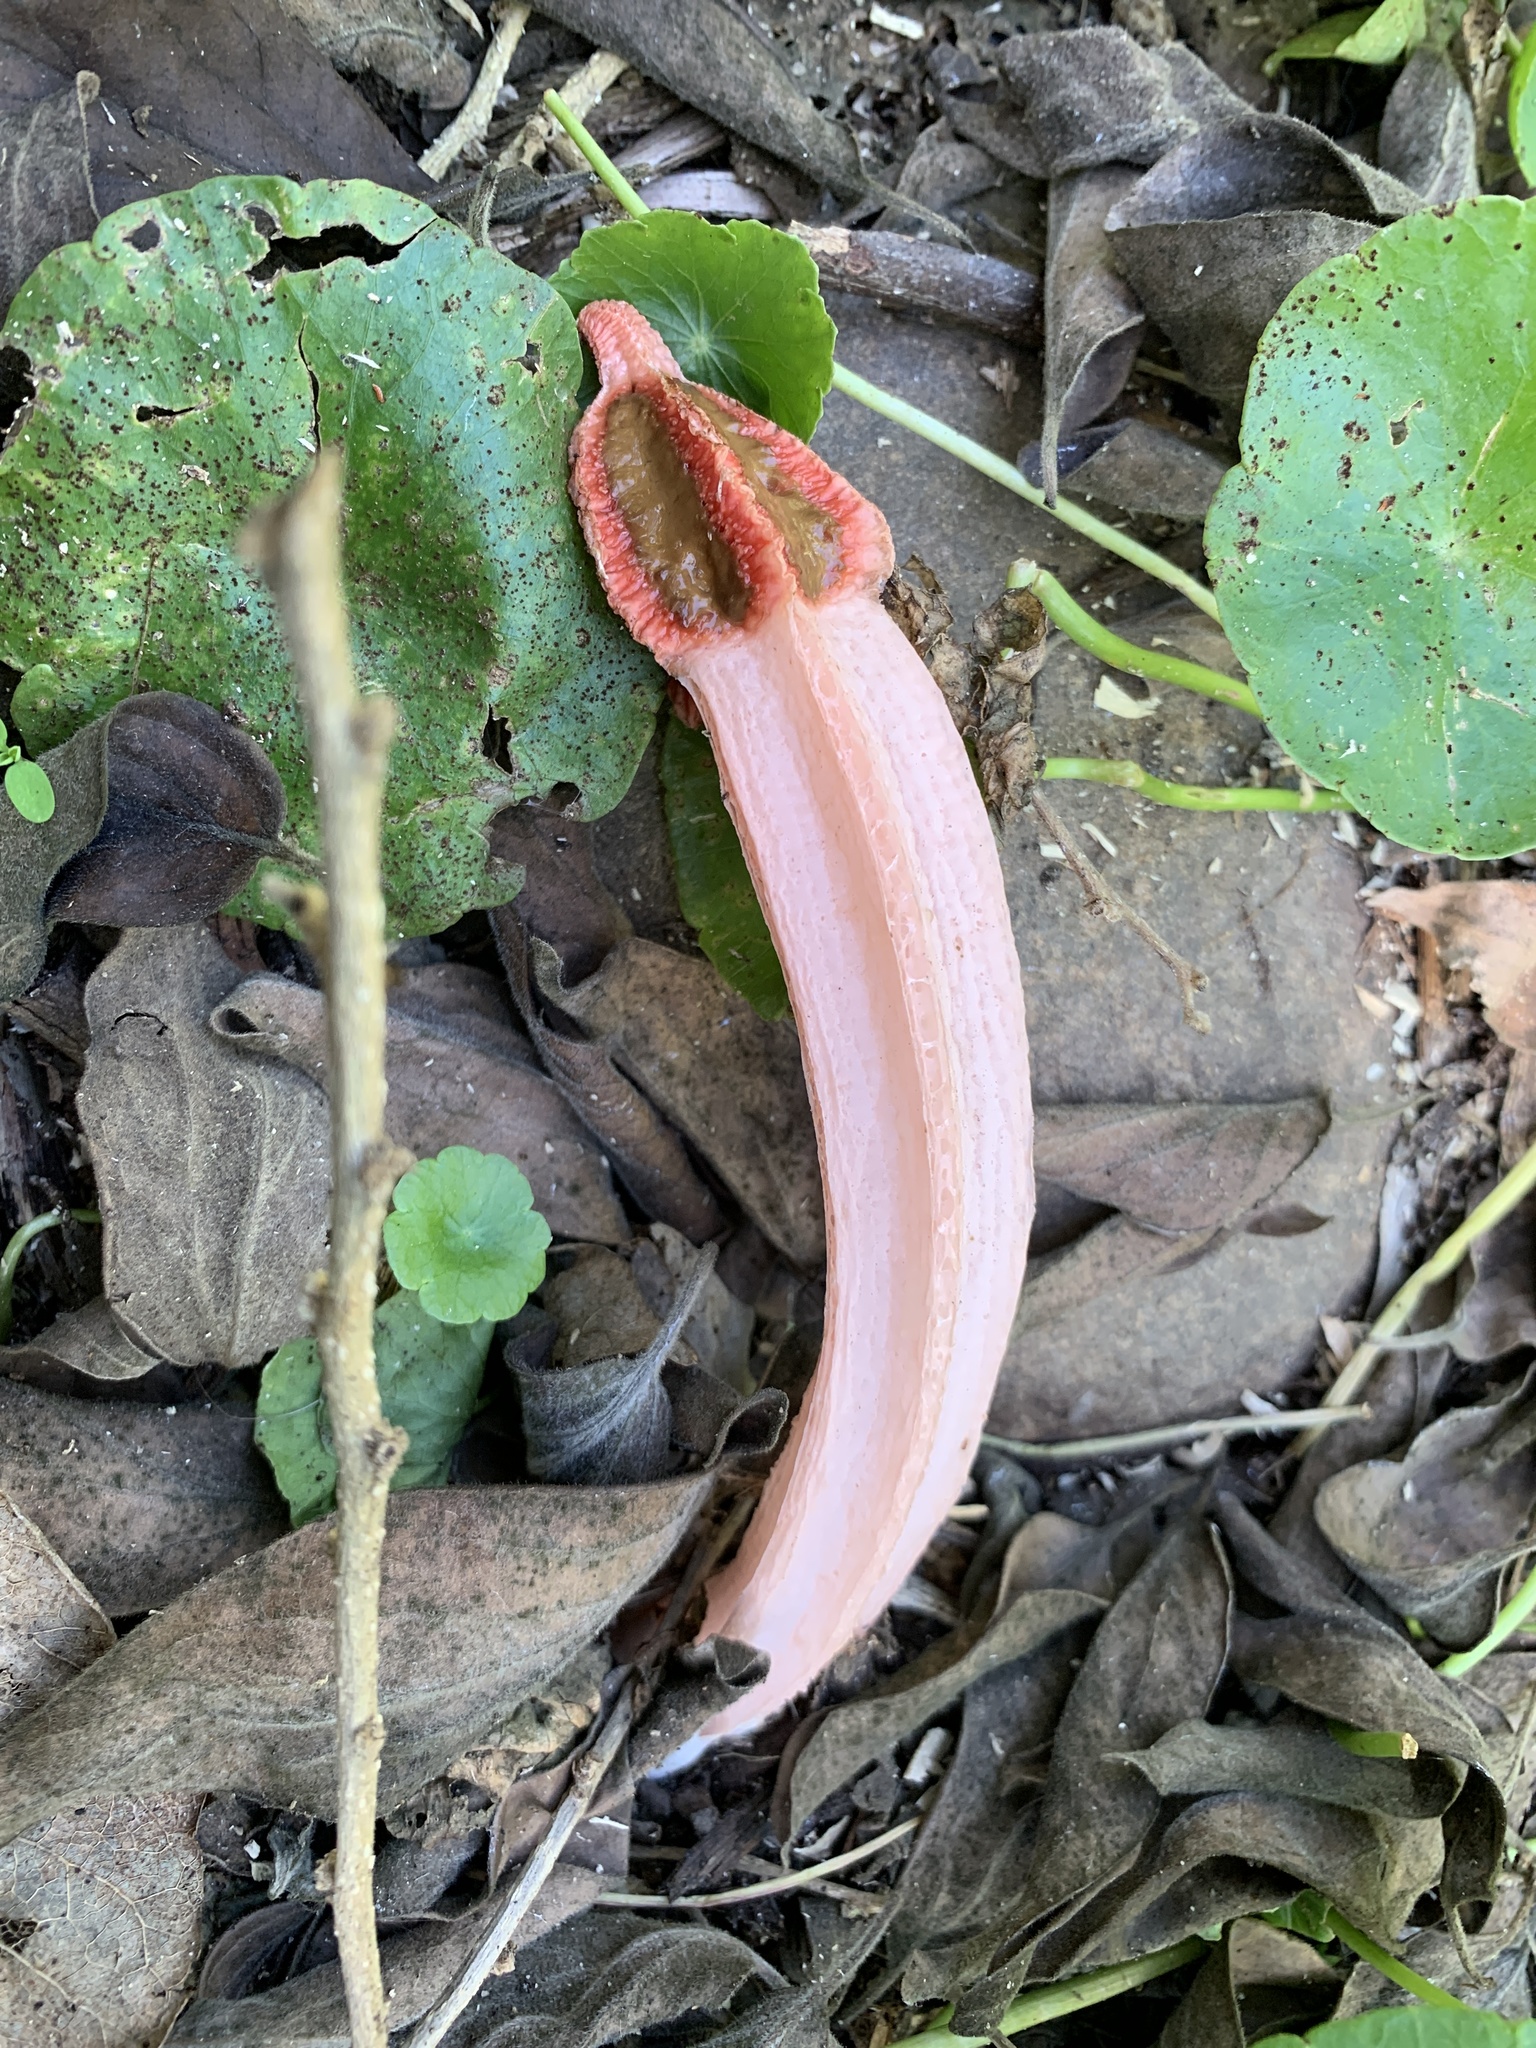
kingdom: Fungi
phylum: Basidiomycota
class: Agaricomycetes
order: Phallales
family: Phallaceae
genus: Lysurus
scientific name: Lysurus mokusin
